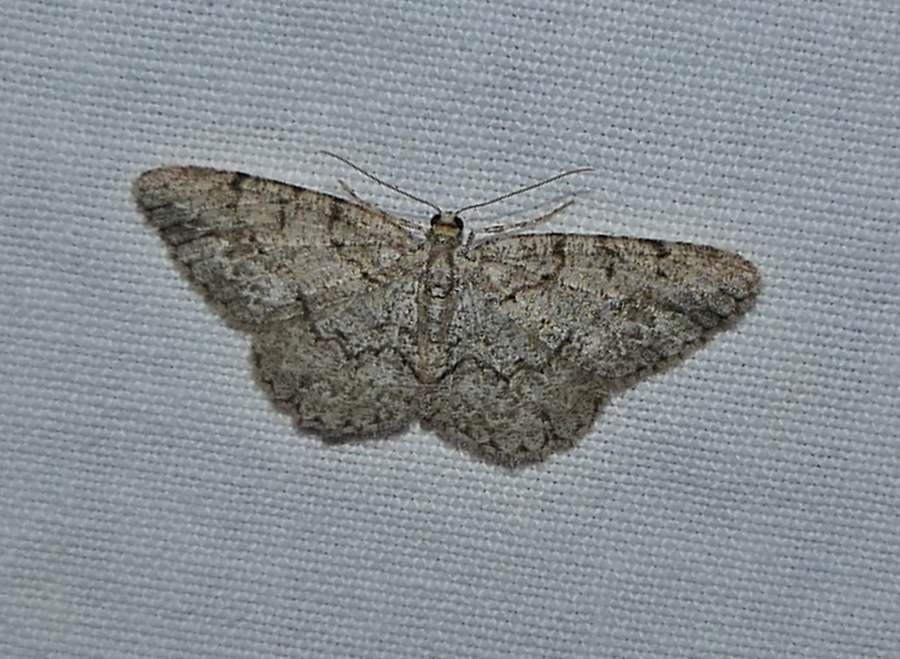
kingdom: Animalia
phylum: Arthropoda
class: Insecta
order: Lepidoptera
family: Geometridae
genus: Protoboarmia
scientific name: Protoboarmia porcelaria
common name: Porcelain gray
